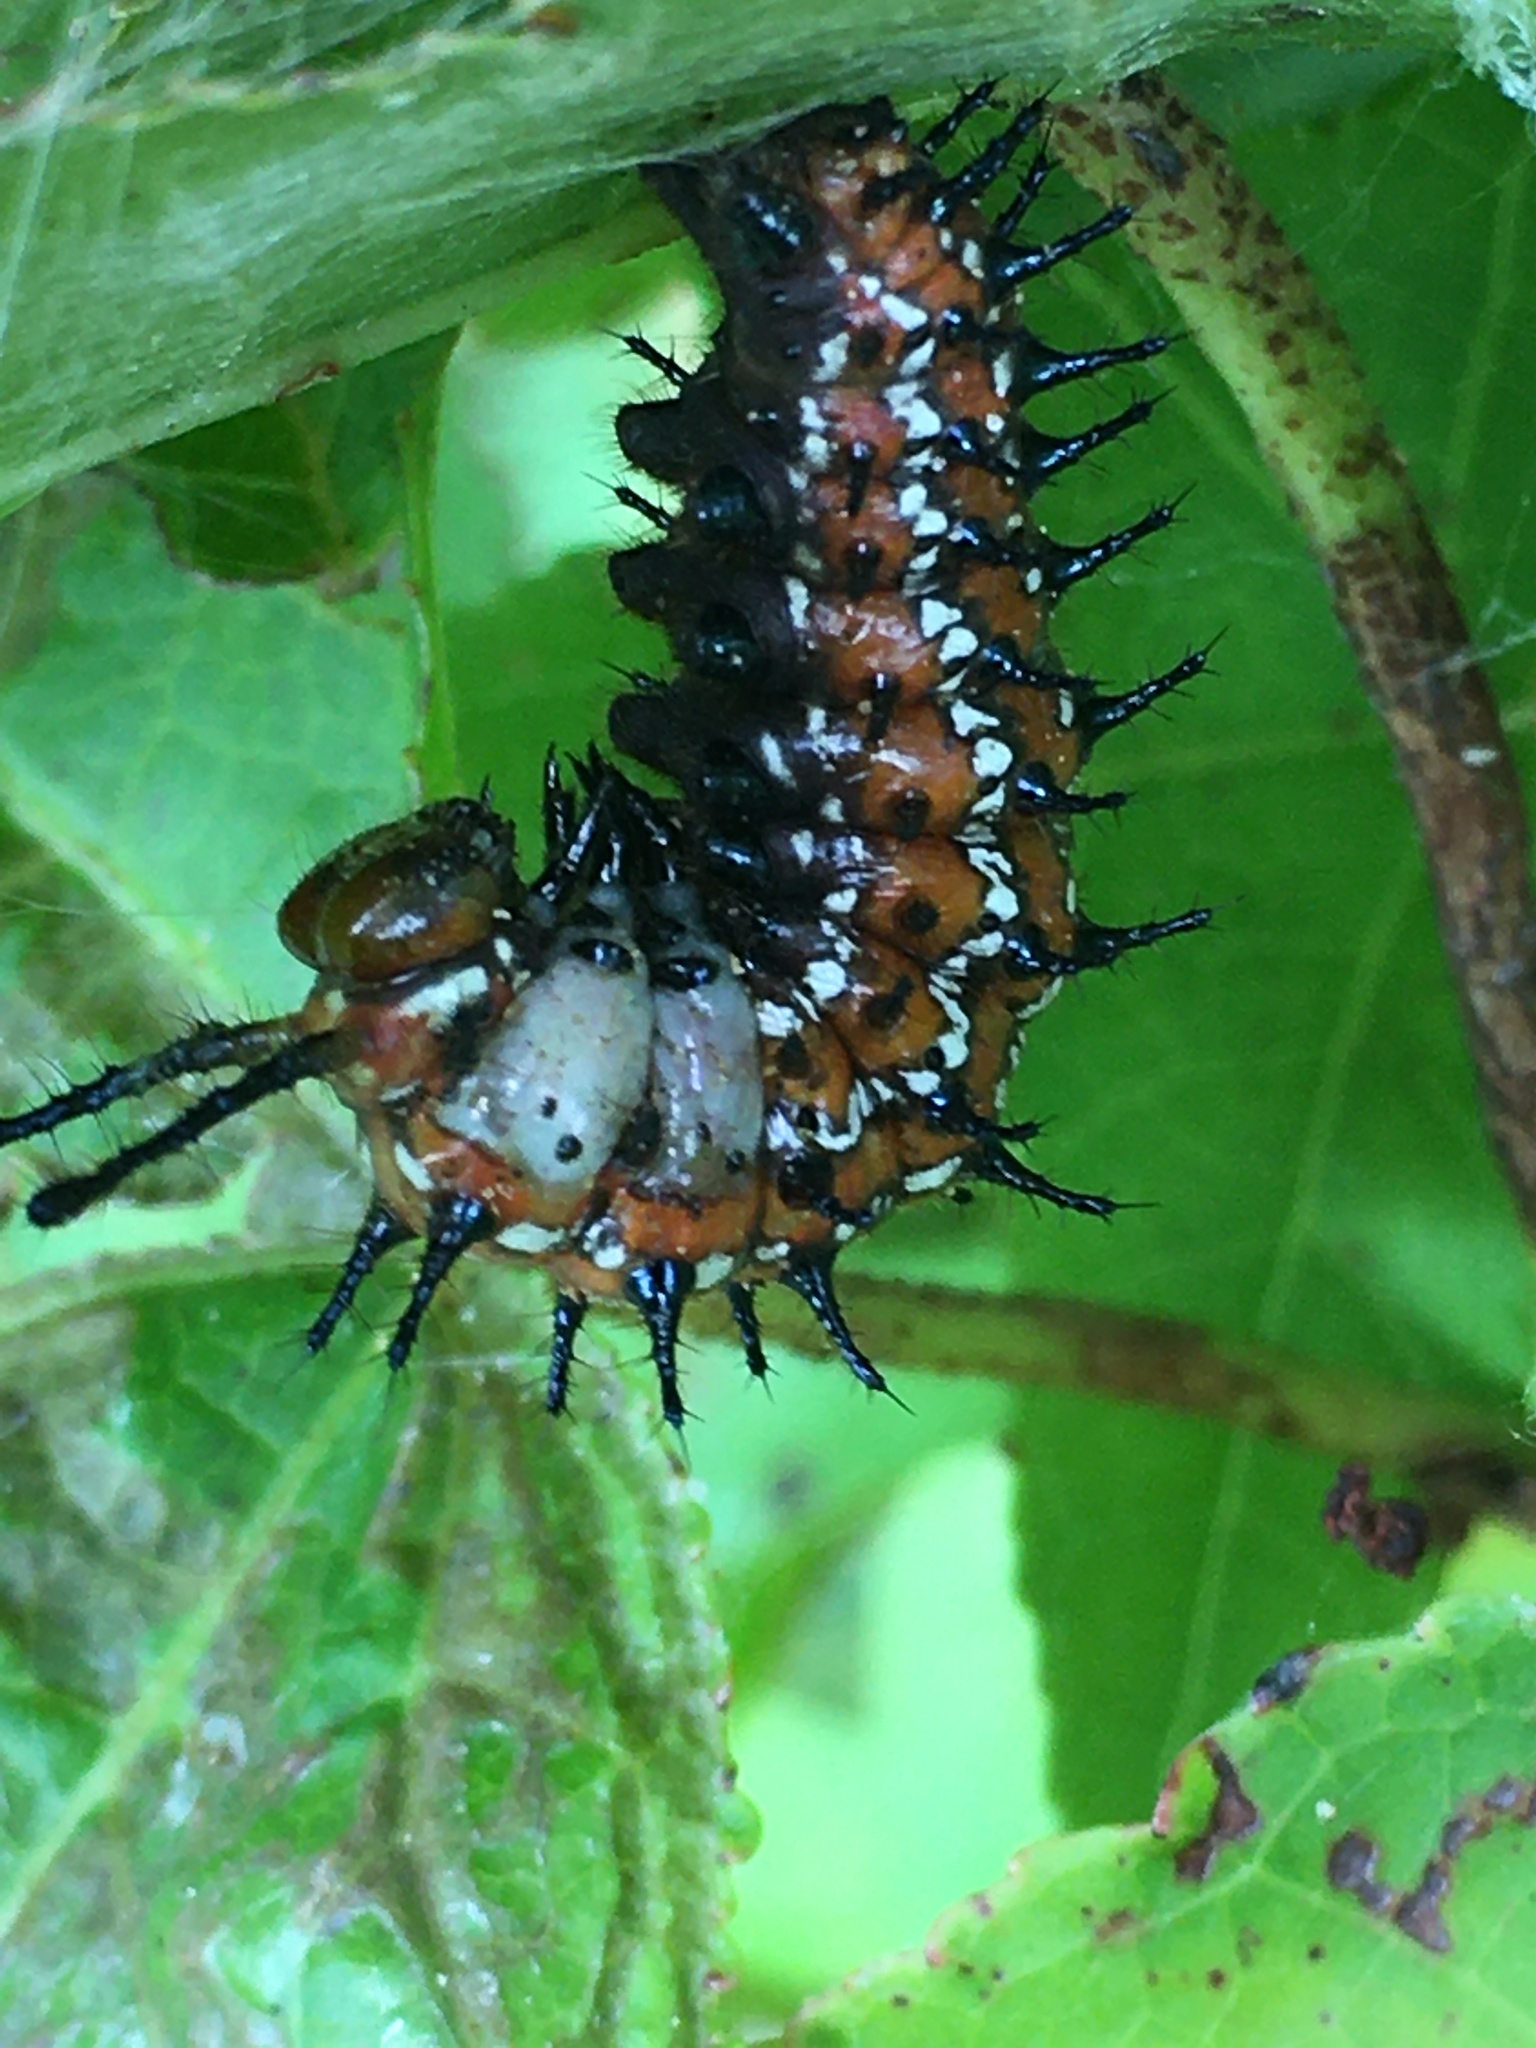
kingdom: Animalia
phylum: Arthropoda
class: Insecta
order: Lepidoptera
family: Nymphalidae
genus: Euptoieta
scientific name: Euptoieta claudia
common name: Variegated fritillary
